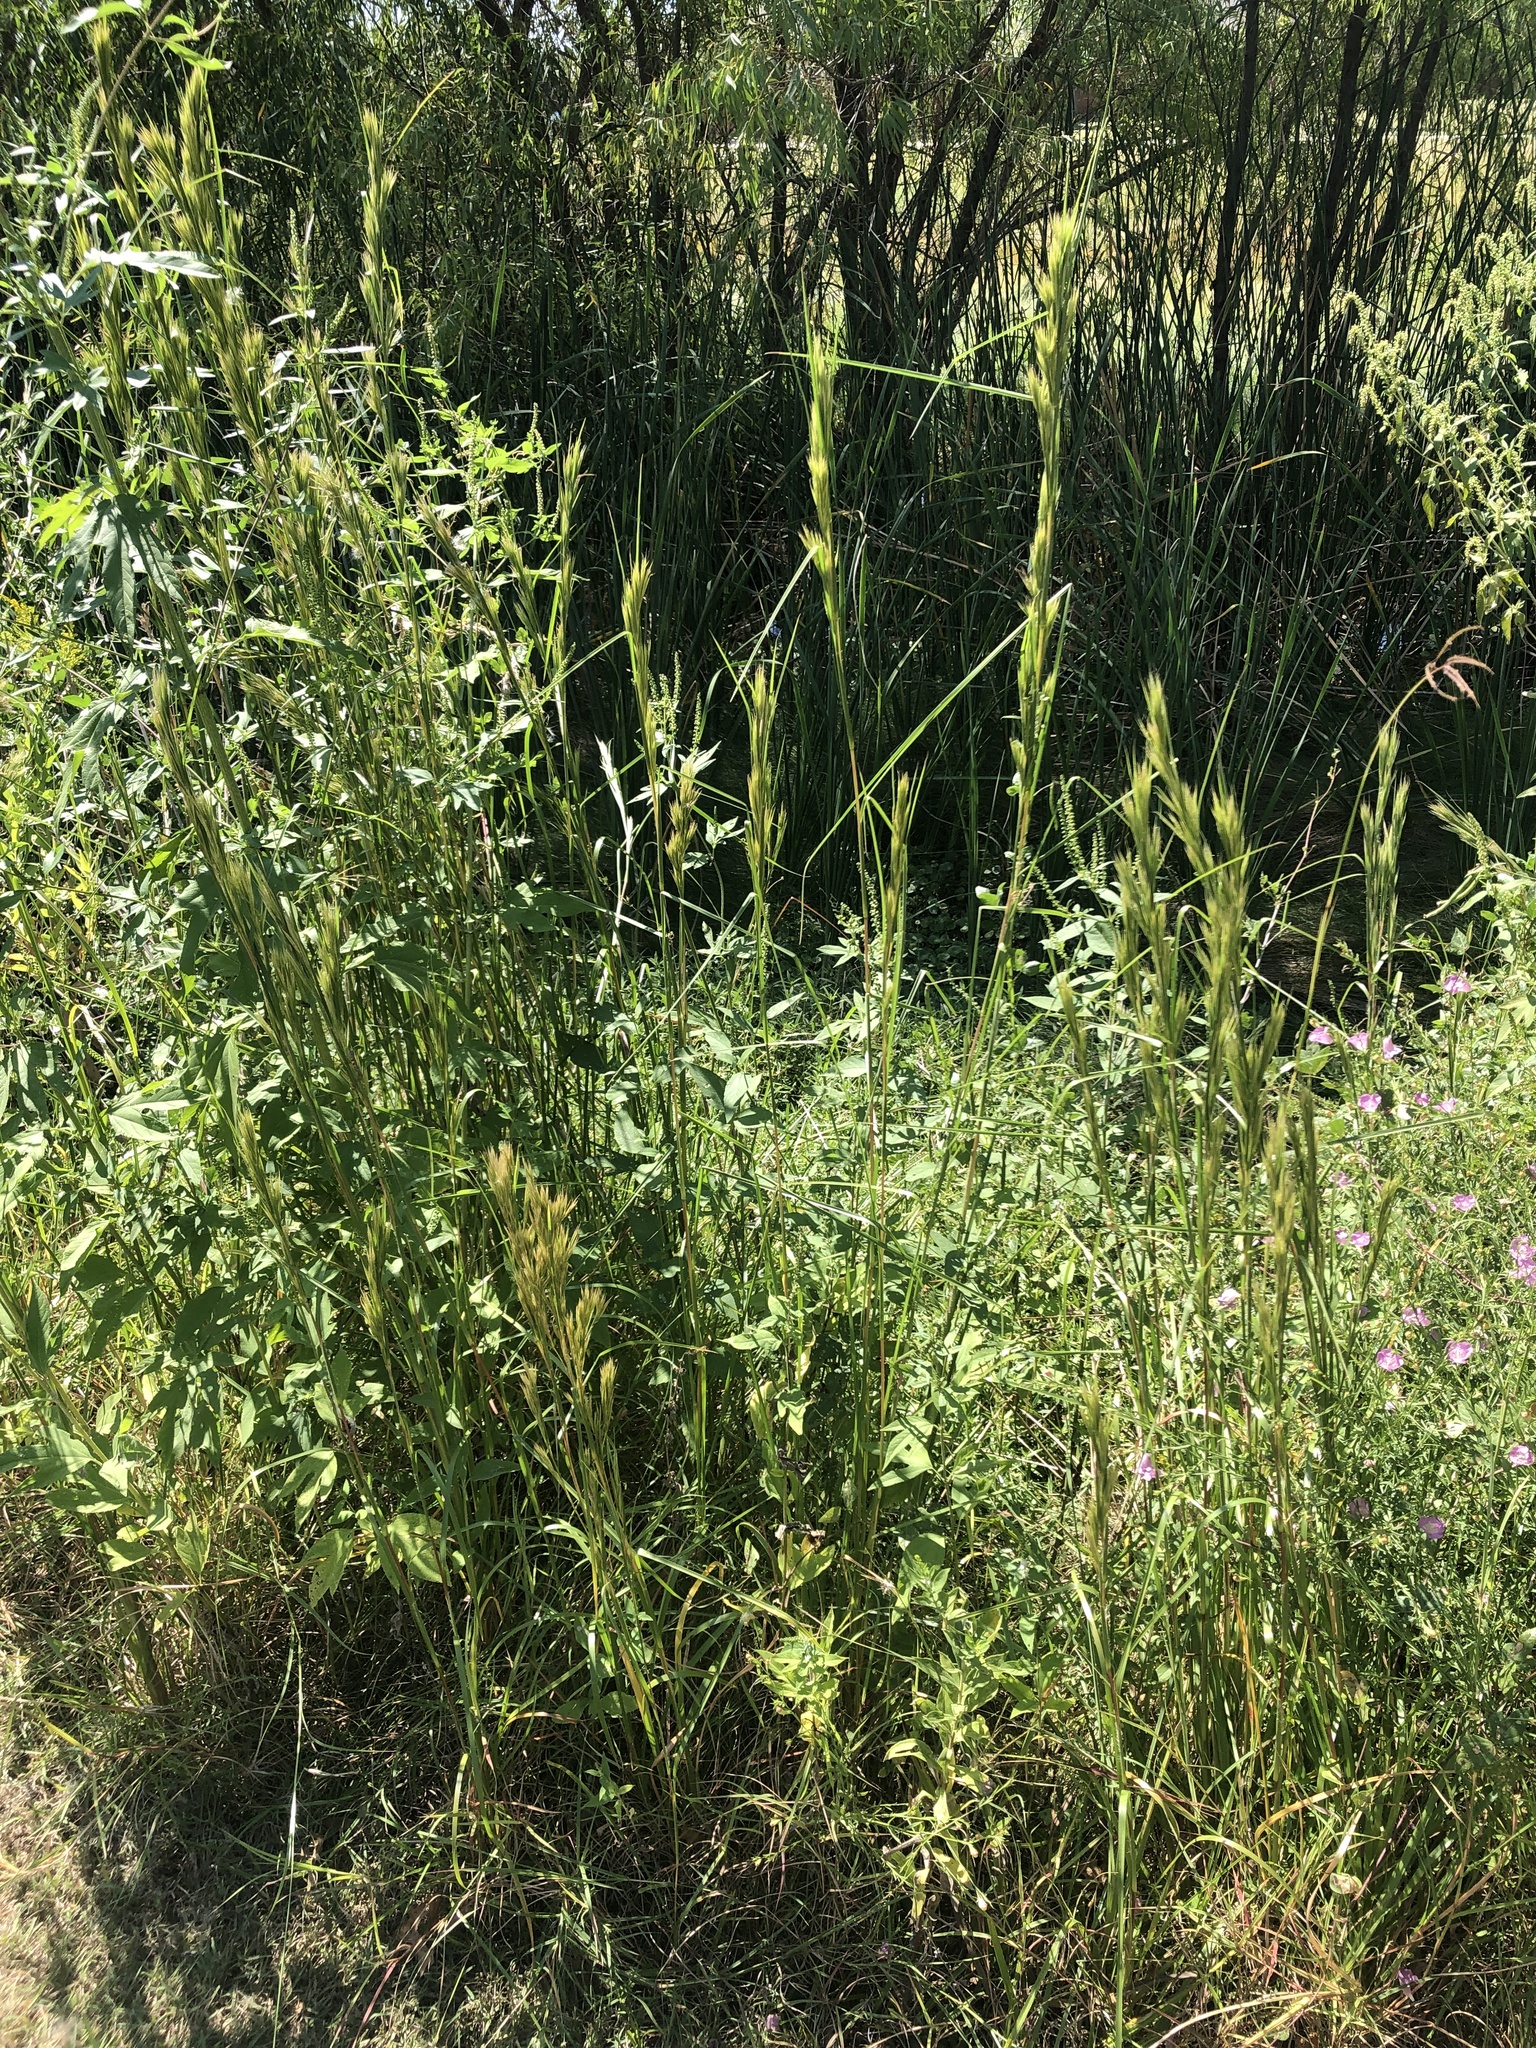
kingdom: Plantae
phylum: Tracheophyta
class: Liliopsida
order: Poales
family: Poaceae
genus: Andropogon
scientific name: Andropogon tenuispatheus
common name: Bushy bluestem
